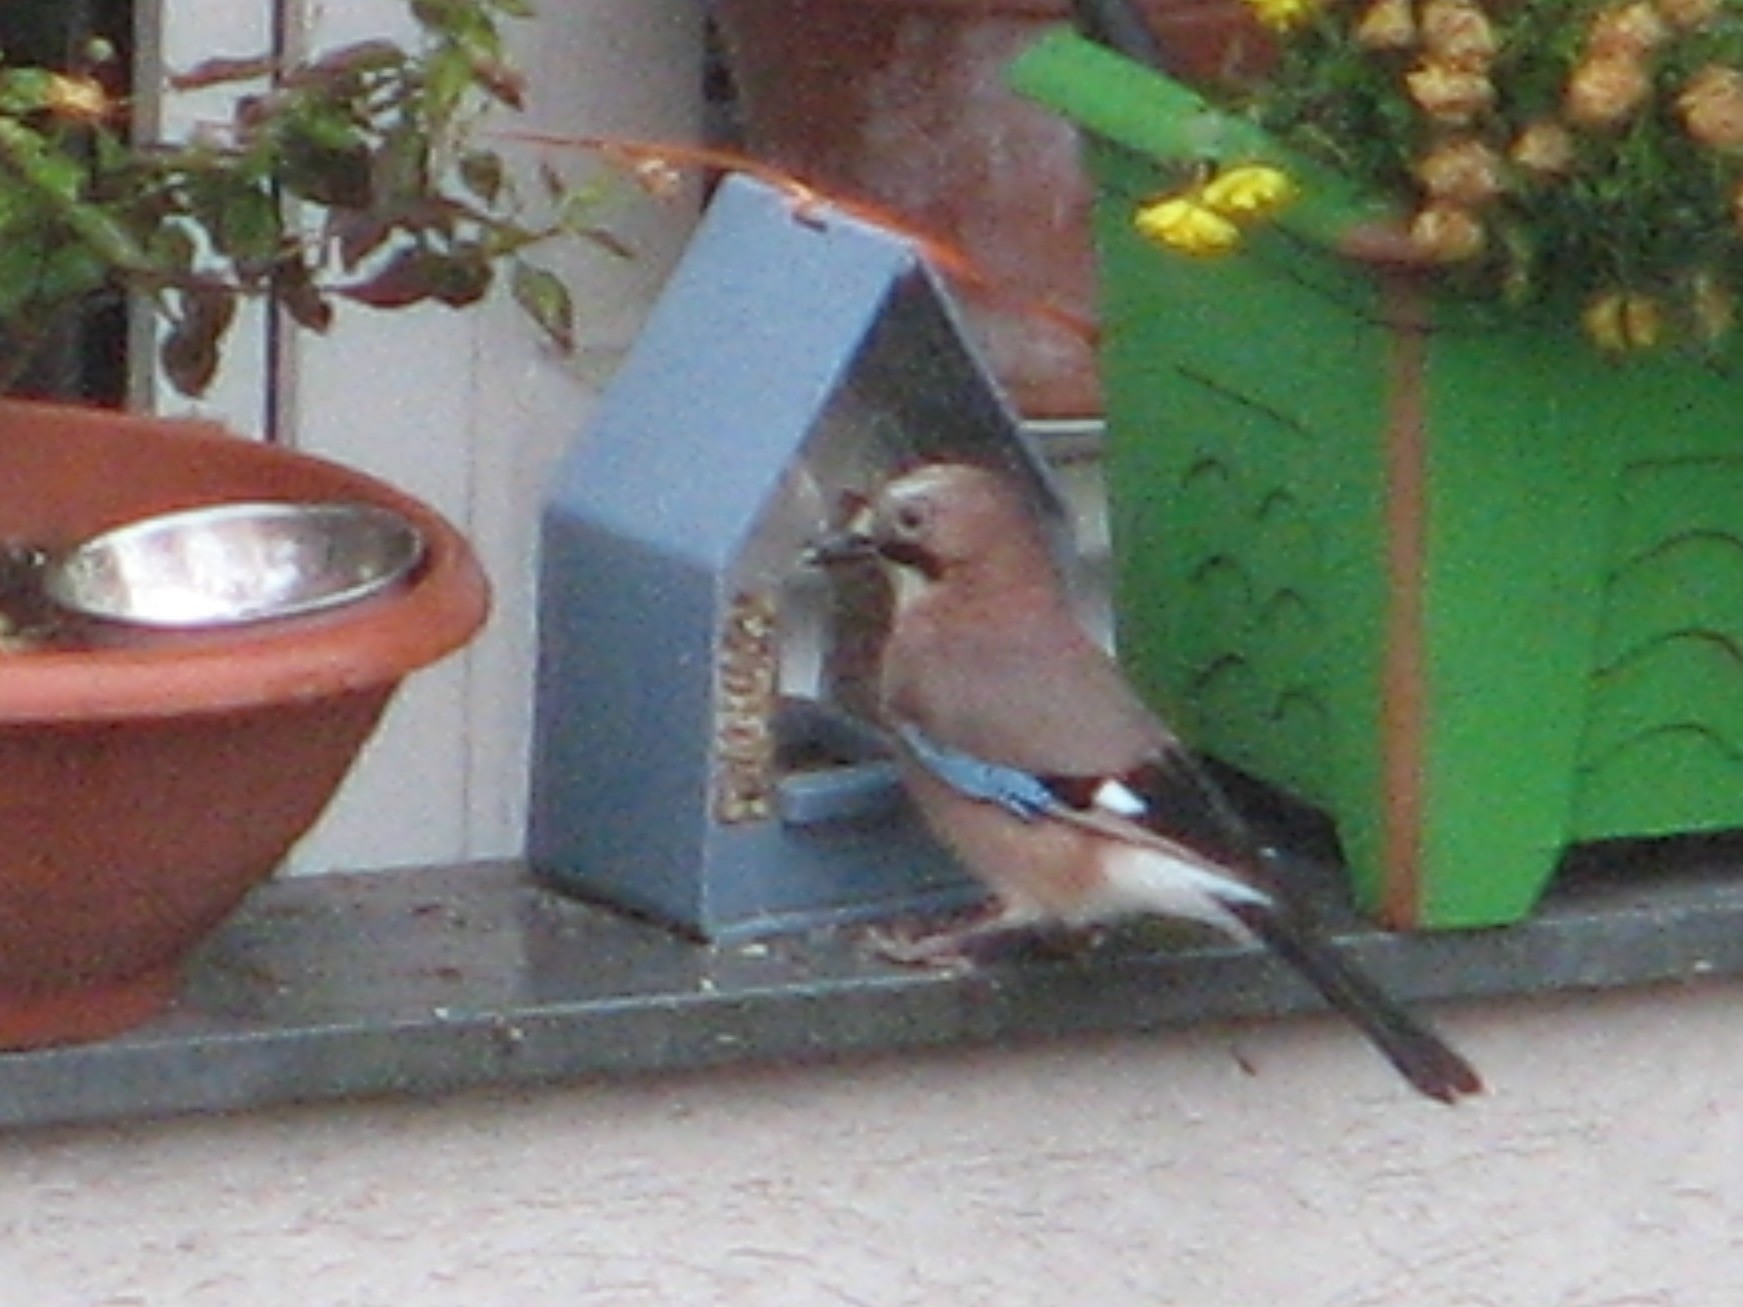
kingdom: Animalia
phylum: Chordata
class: Aves
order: Passeriformes
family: Corvidae
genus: Garrulus
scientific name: Garrulus glandarius
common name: Eurasian jay
